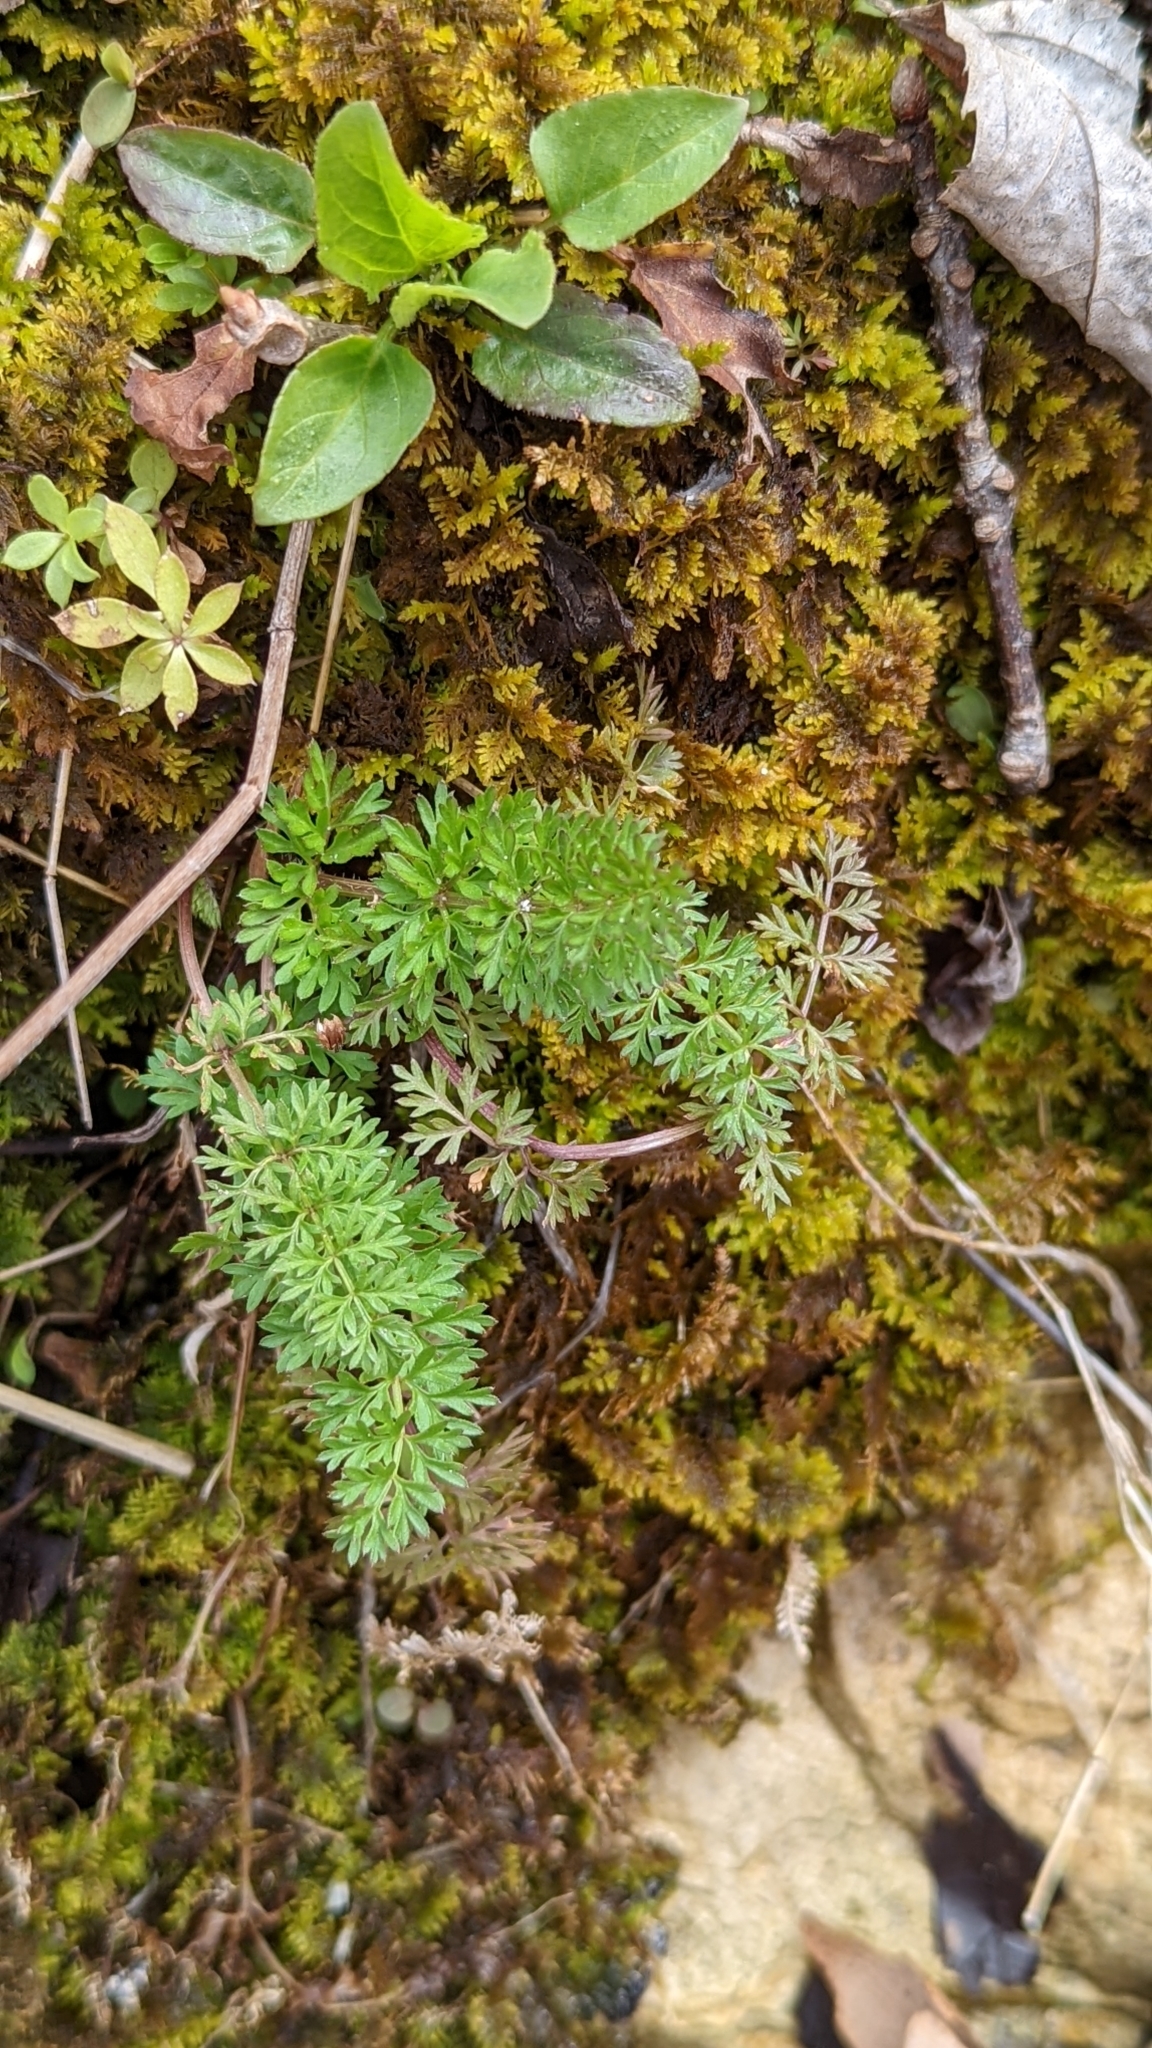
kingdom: Plantae
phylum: Tracheophyta
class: Magnoliopsida
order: Asterales
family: Asteraceae
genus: Achillea
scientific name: Achillea millefolium
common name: Yarrow
